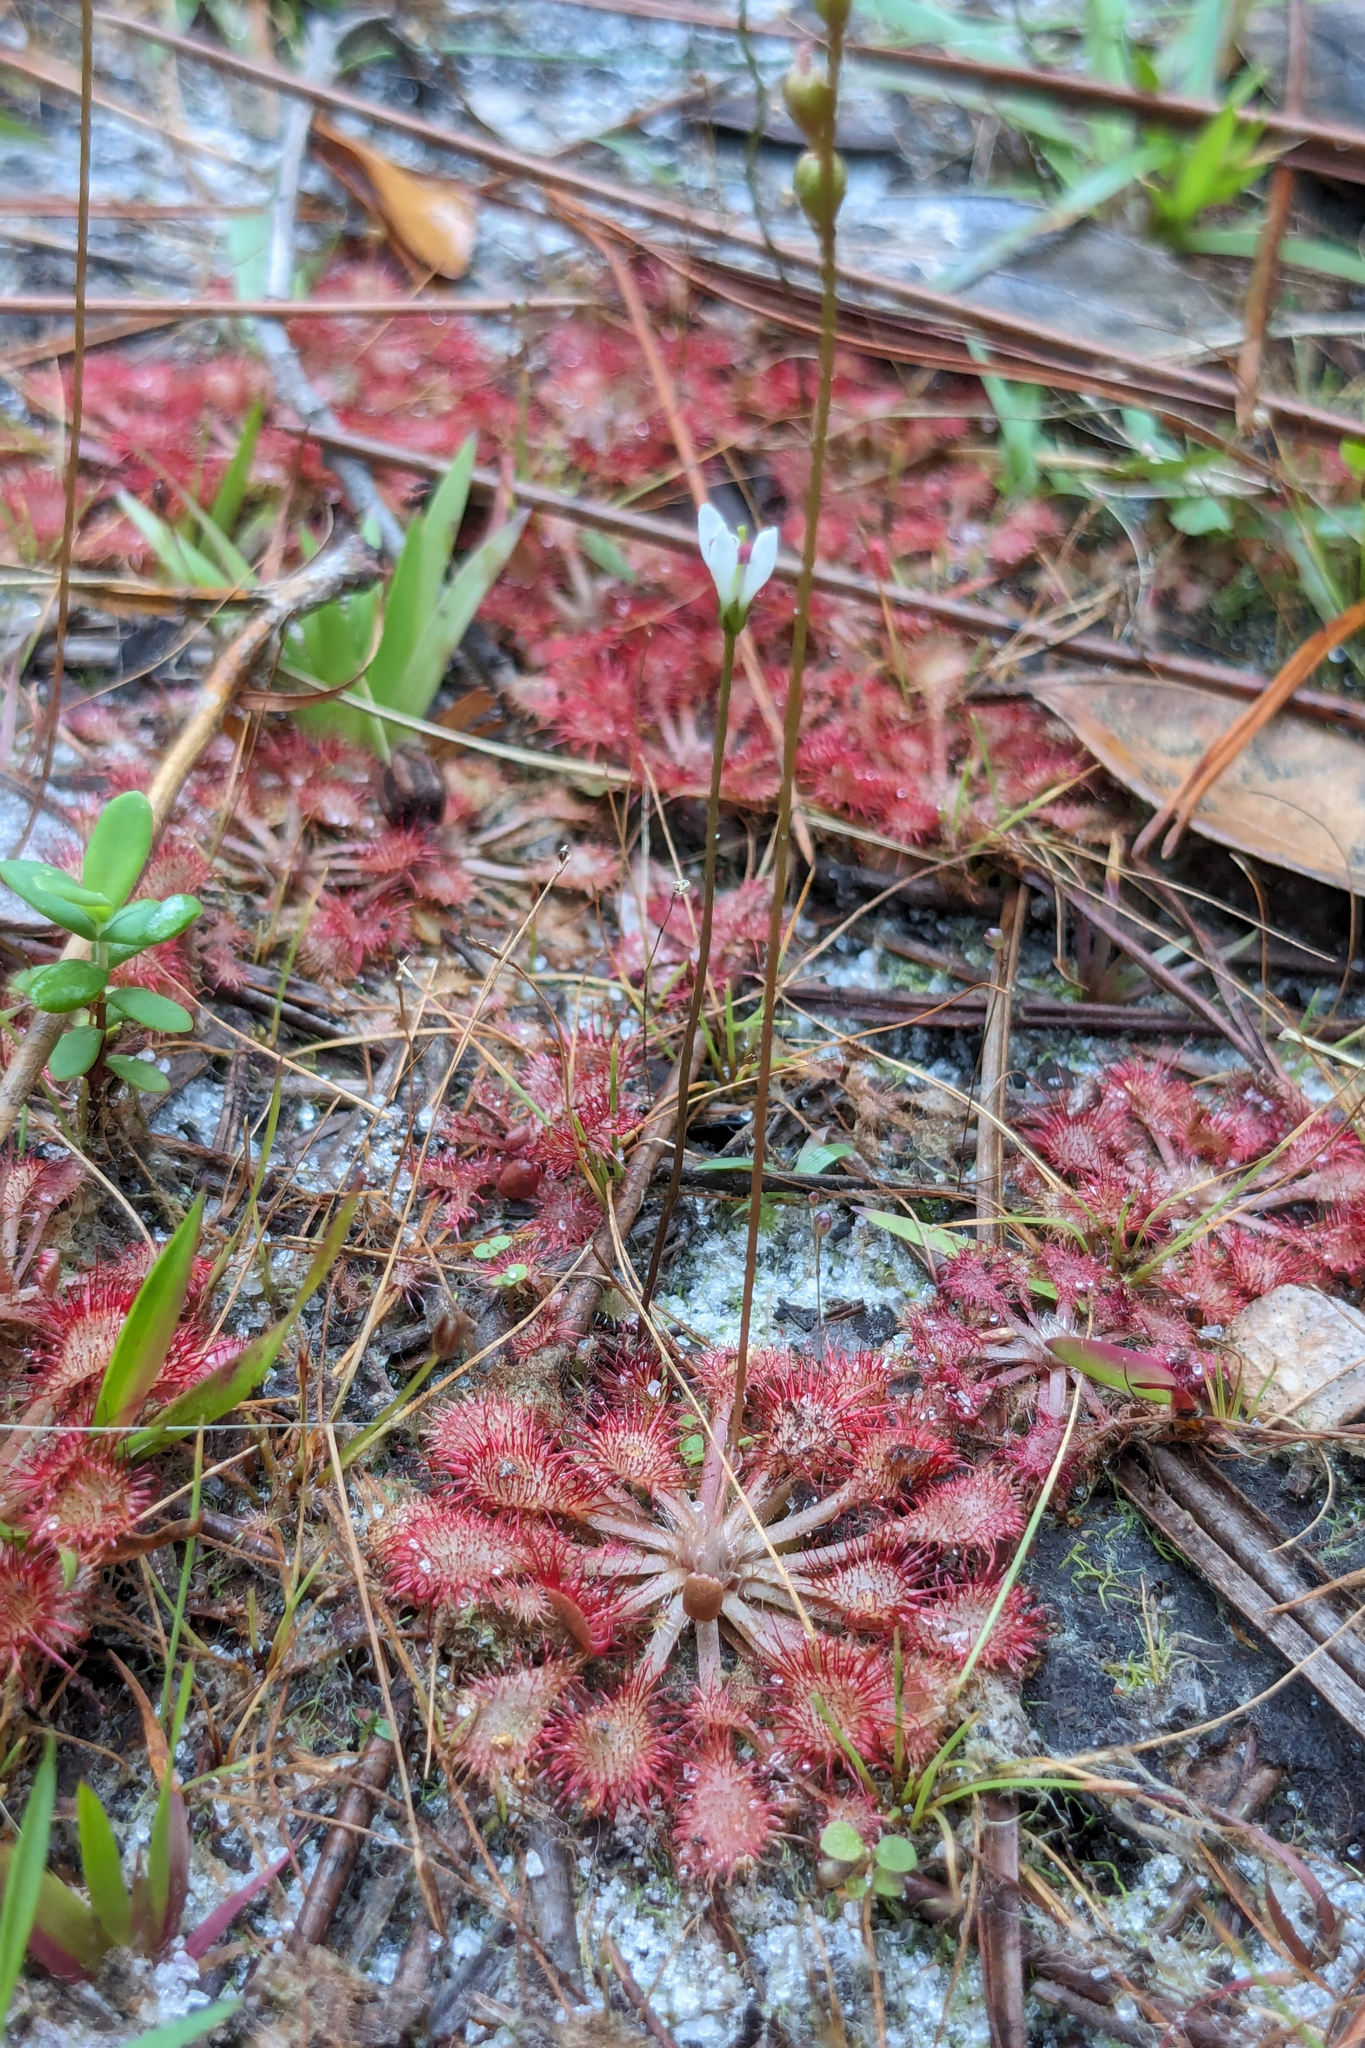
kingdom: Plantae
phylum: Tracheophyta
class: Magnoliopsida
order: Caryophyllales
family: Droseraceae
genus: Drosera
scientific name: Drosera capillaris
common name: Pink sundew
